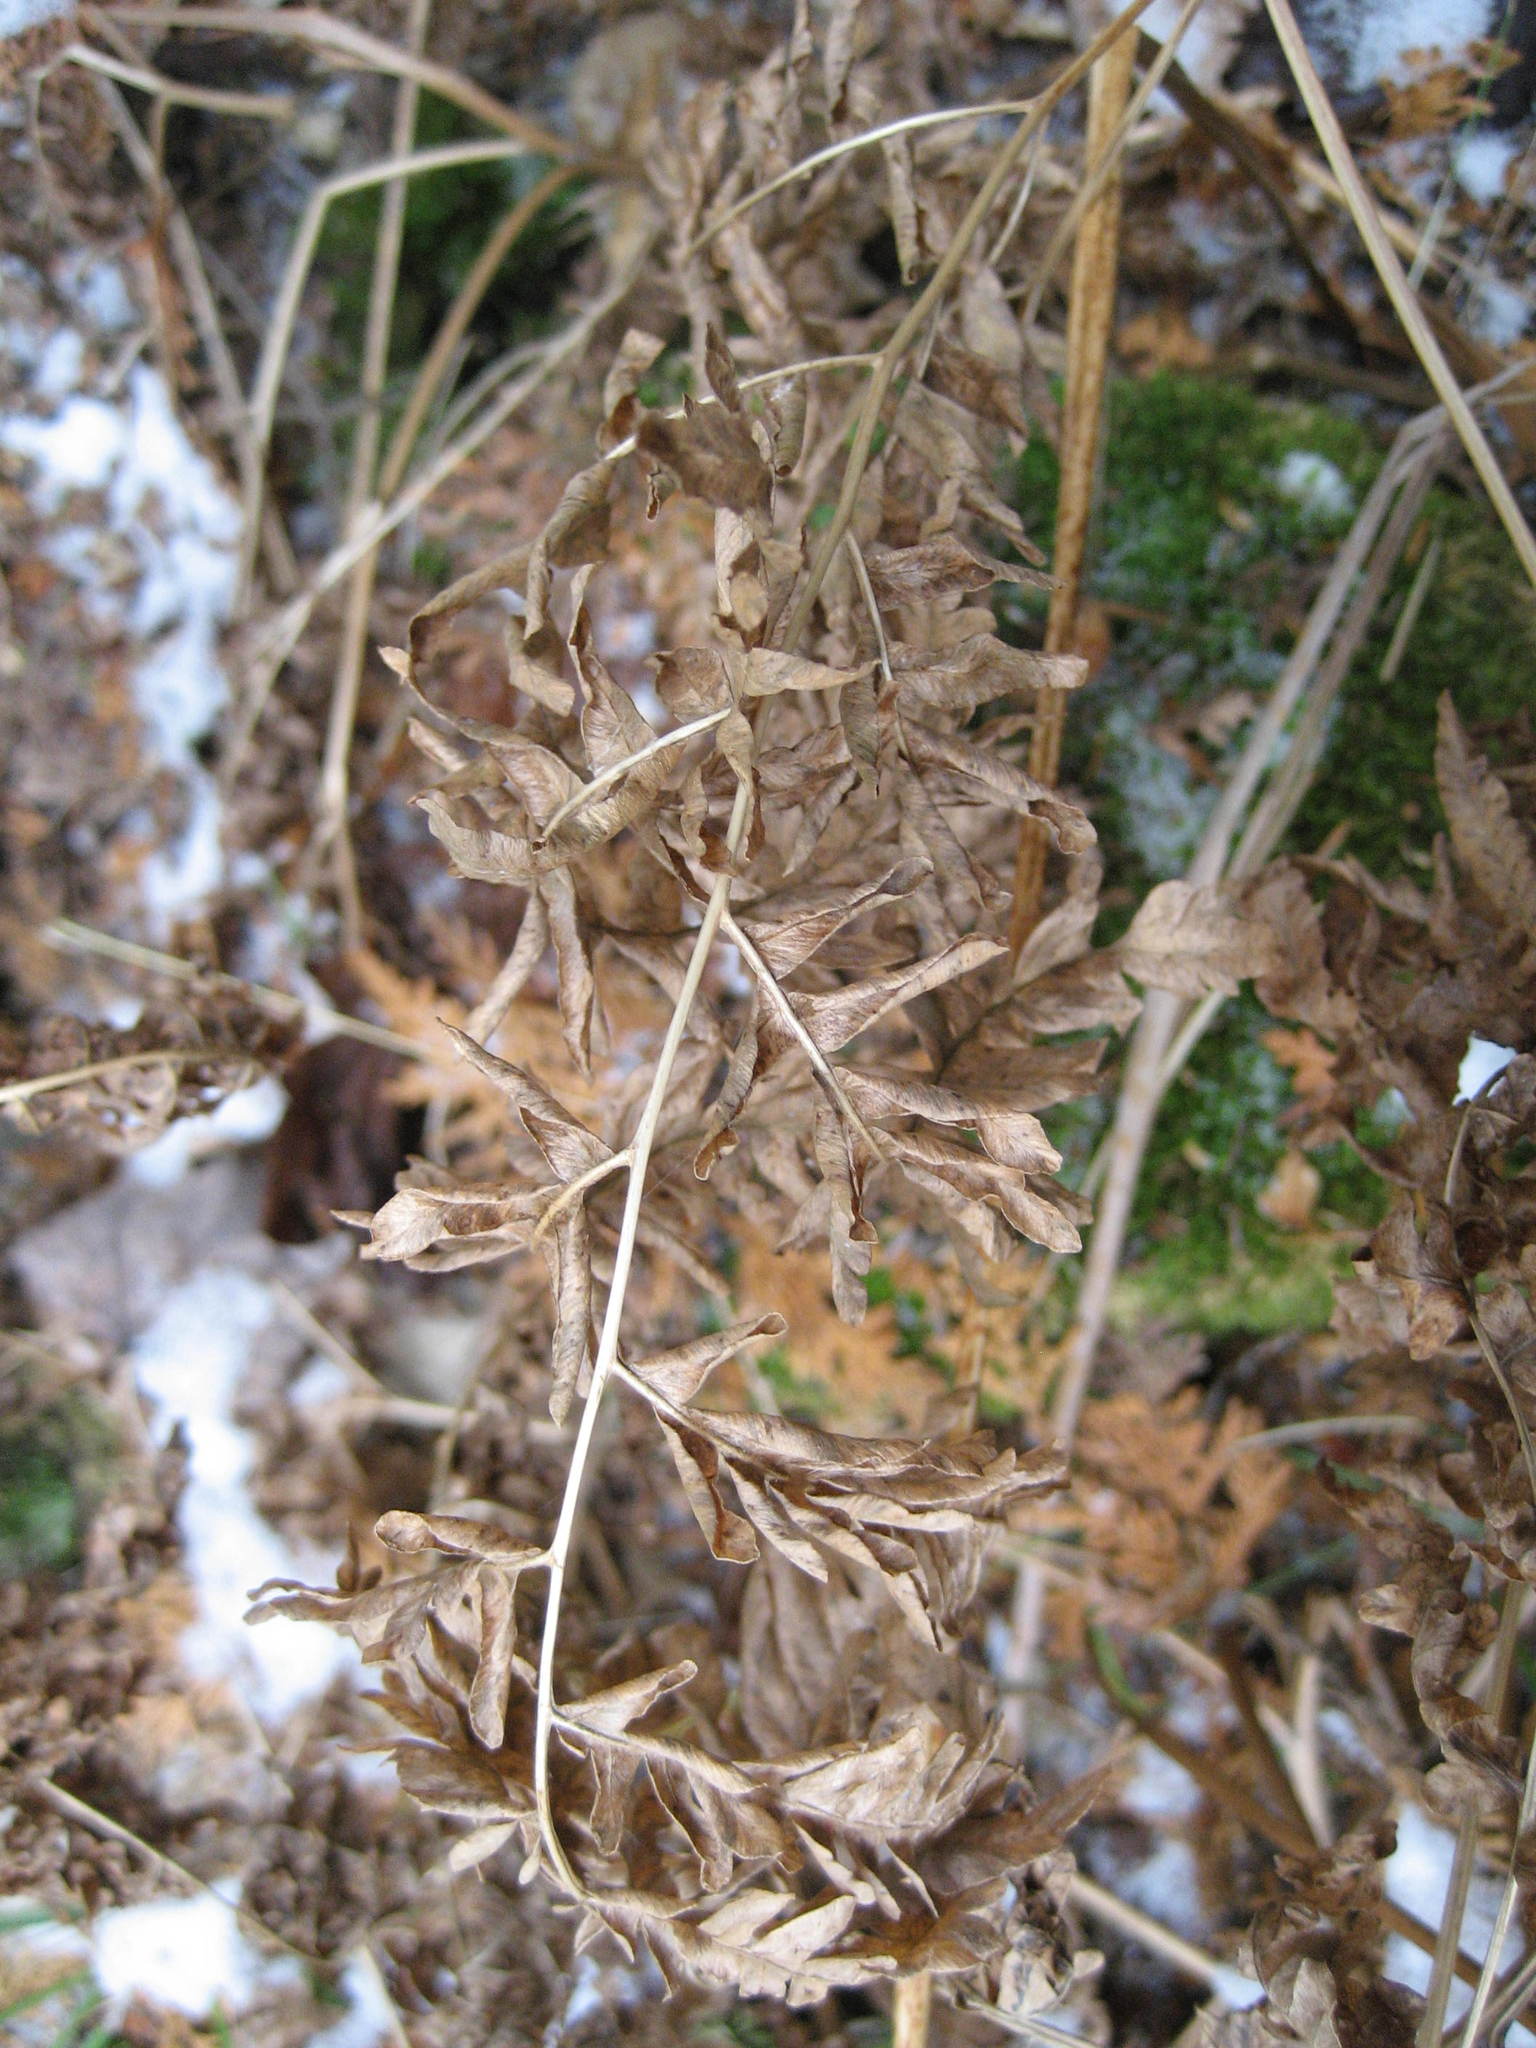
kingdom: Plantae
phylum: Tracheophyta
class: Polypodiopsida
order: Polypodiales
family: Dennstaedtiaceae
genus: Pteridium
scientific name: Pteridium aquilinum
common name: Bracken
